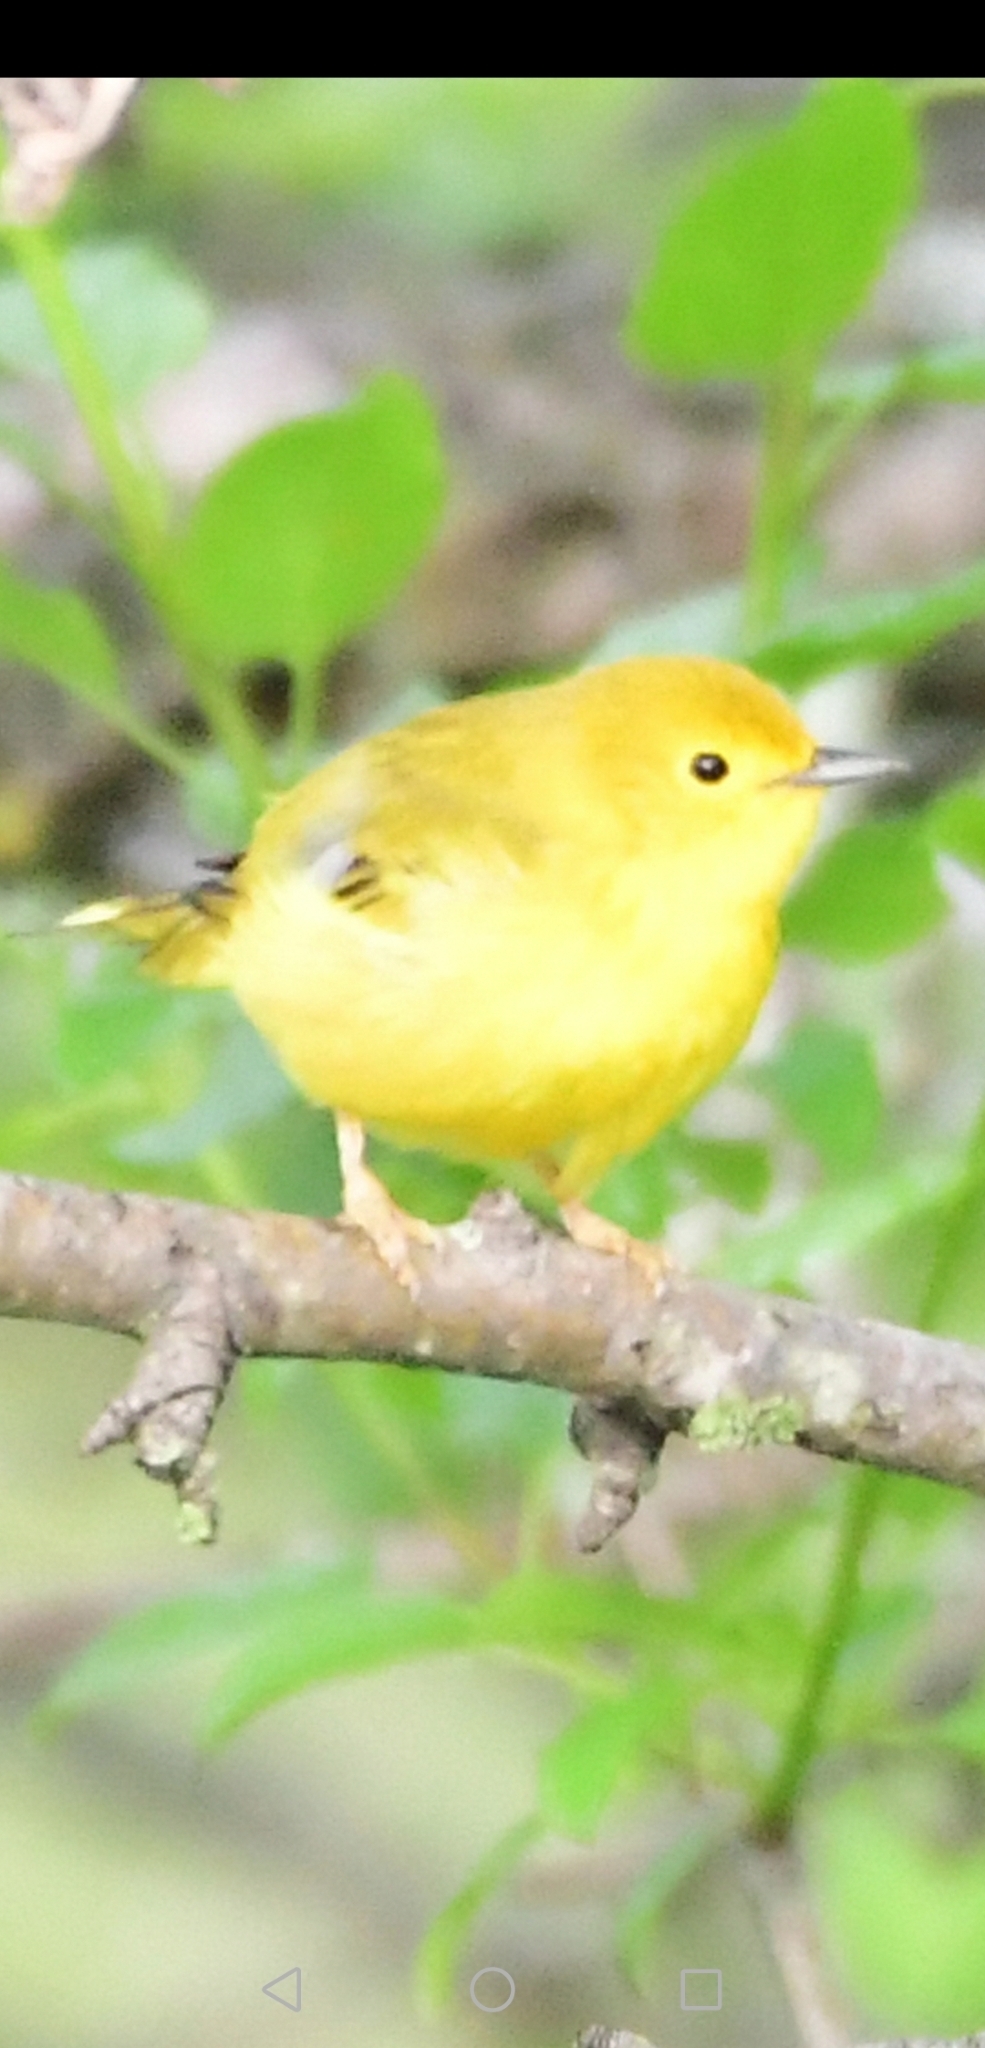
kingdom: Animalia
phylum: Chordata
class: Aves
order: Passeriformes
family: Parulidae
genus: Setophaga
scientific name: Setophaga petechia
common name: Yellow warbler
